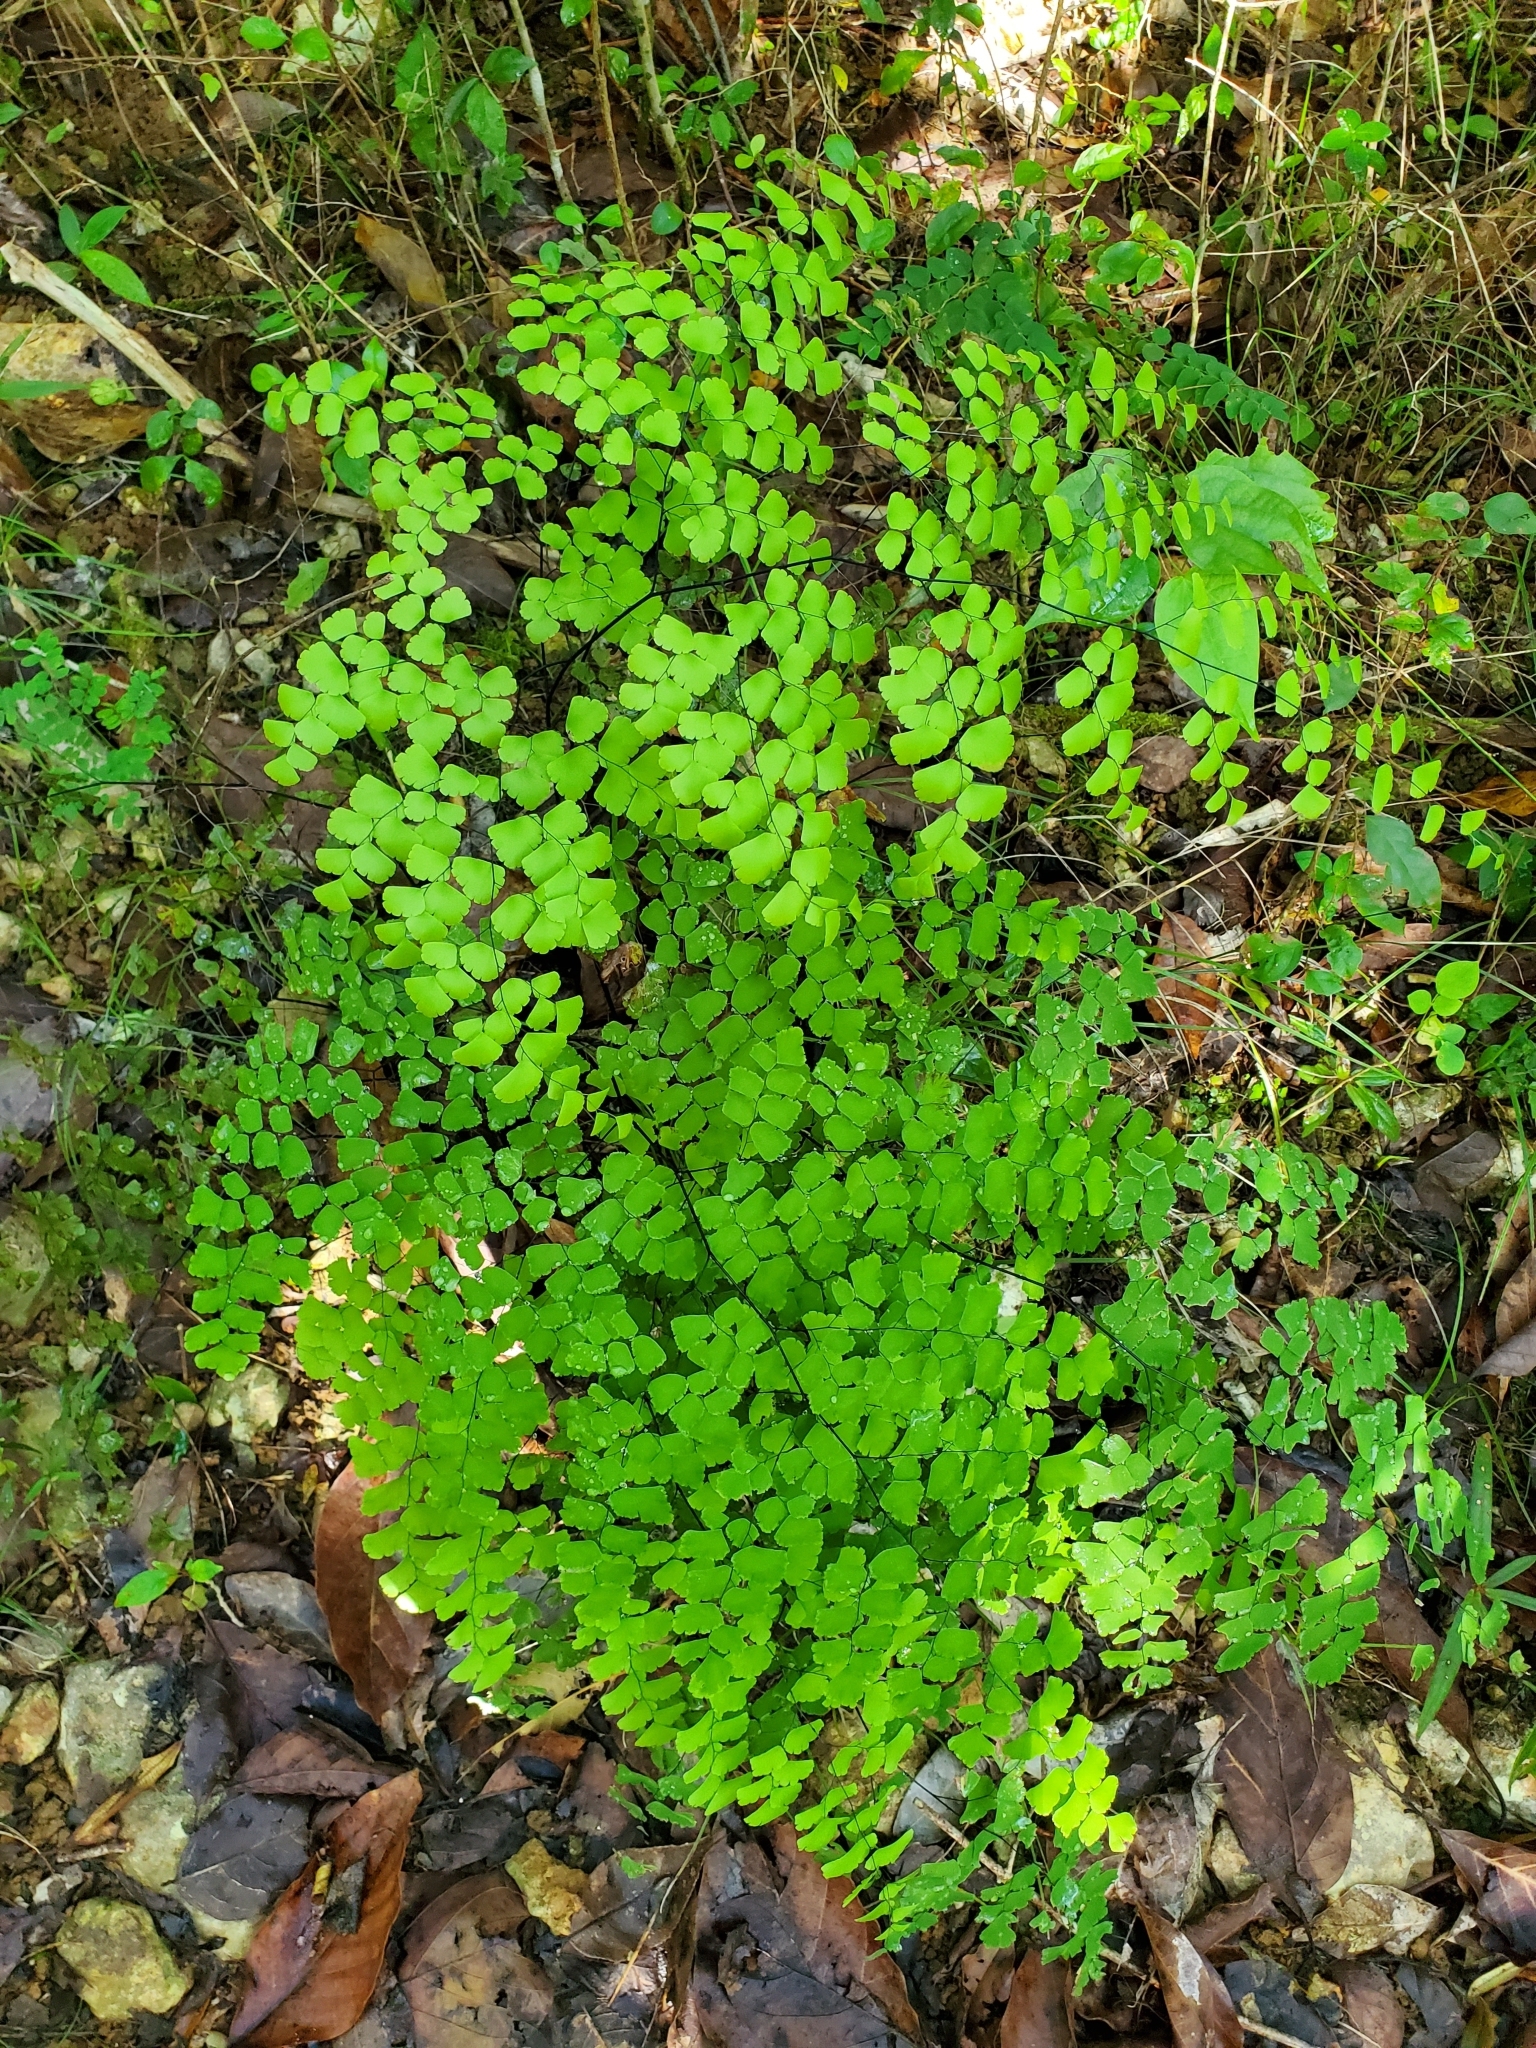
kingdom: Plantae
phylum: Tracheophyta
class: Polypodiopsida
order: Polypodiales
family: Pteridaceae
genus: Adiantum
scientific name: Adiantum fragile
